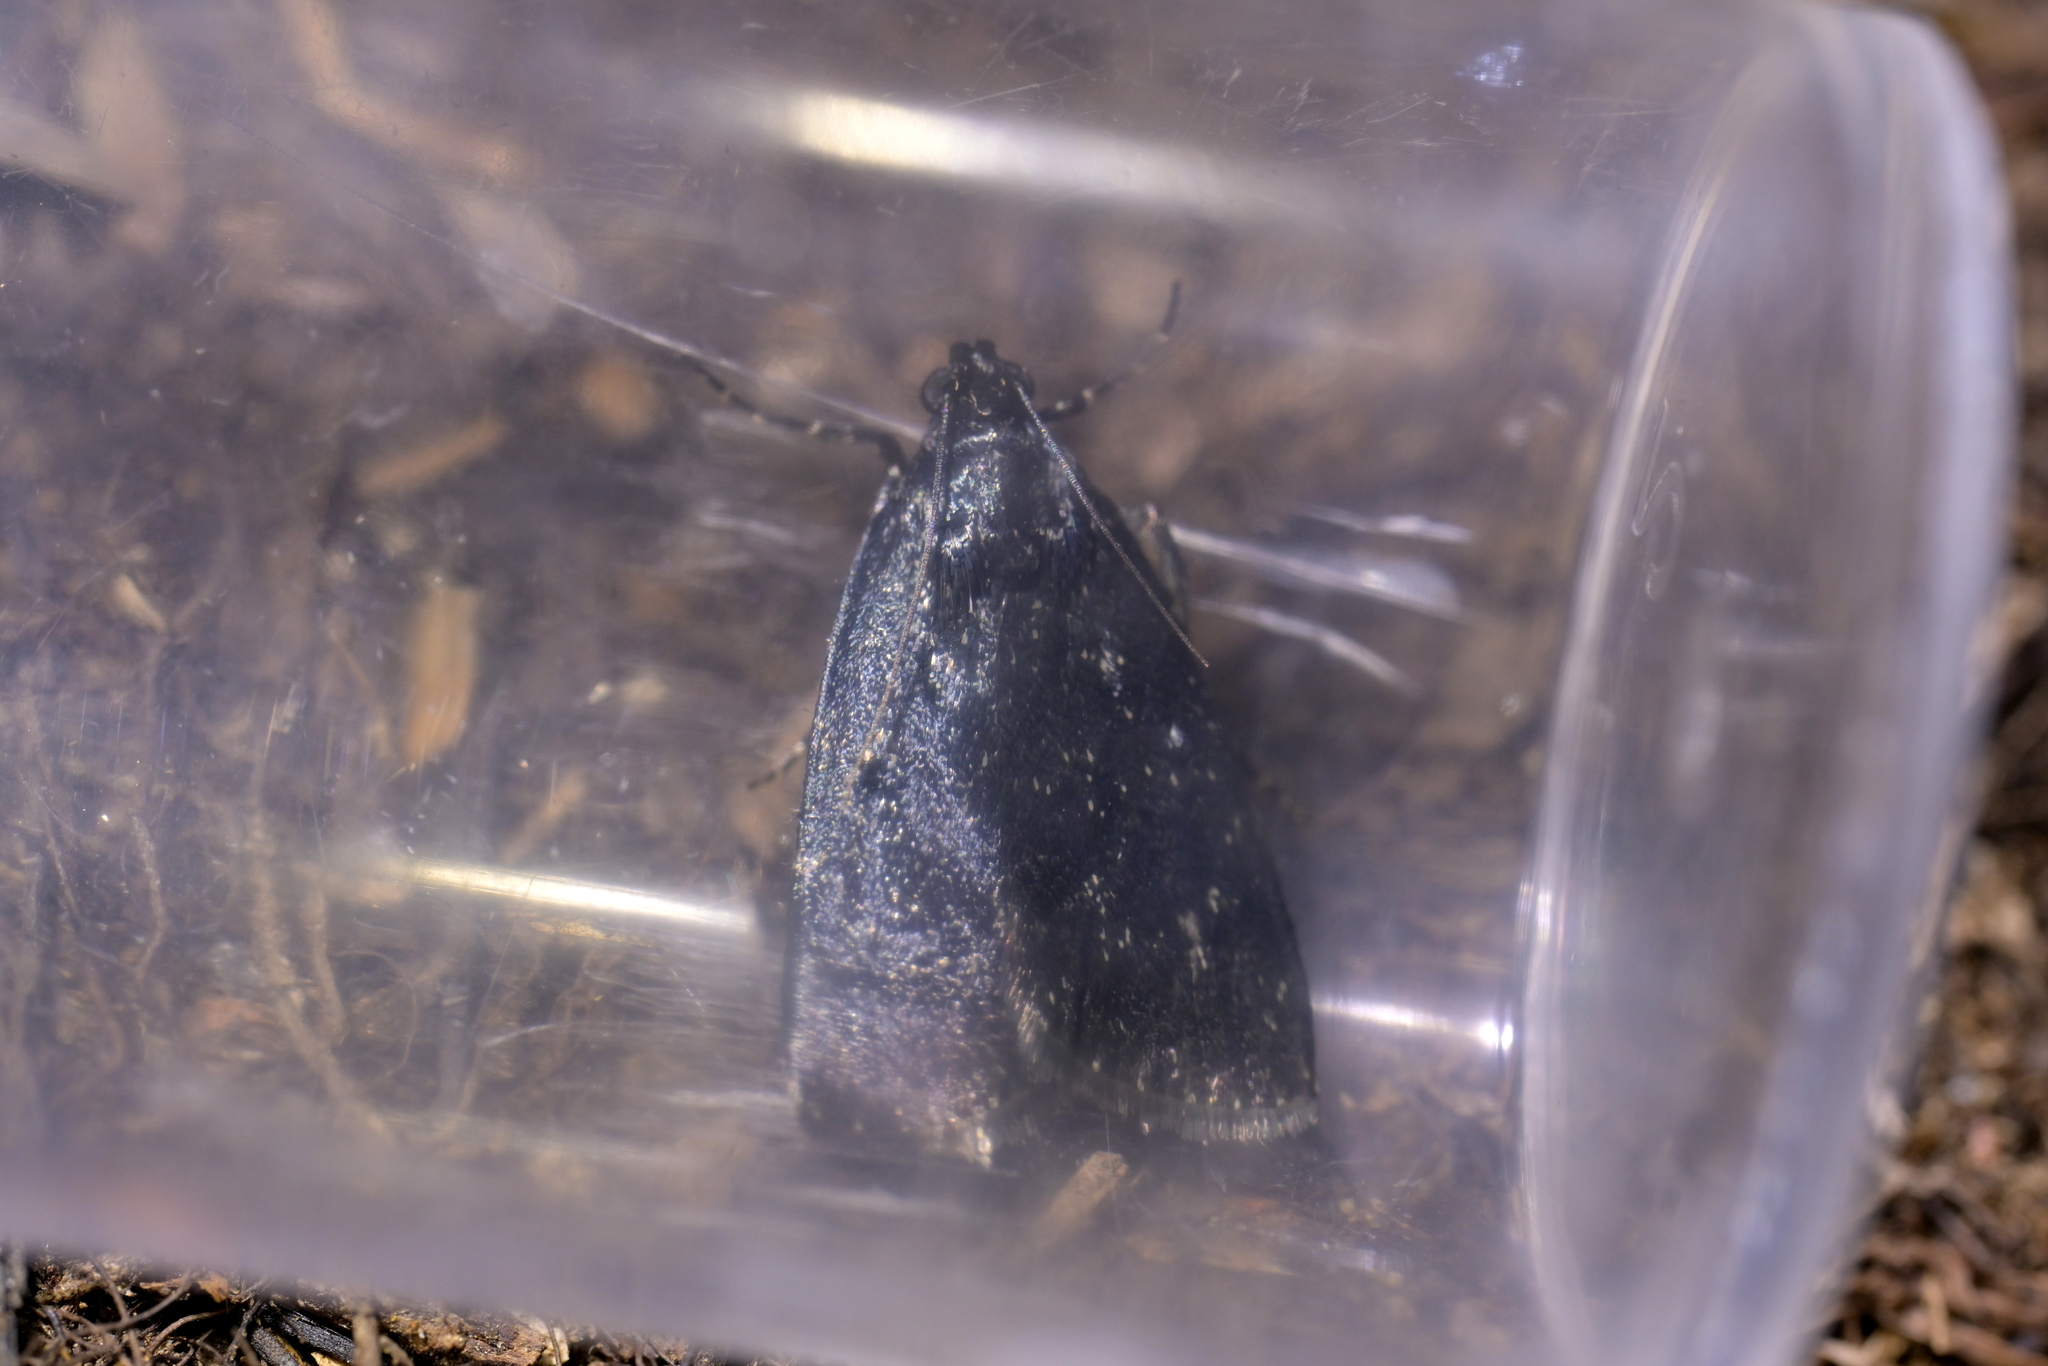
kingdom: Animalia
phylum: Arthropoda
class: Insecta
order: Lepidoptera
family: Pyralidae
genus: Stericta
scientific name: Stericta carbonalis
